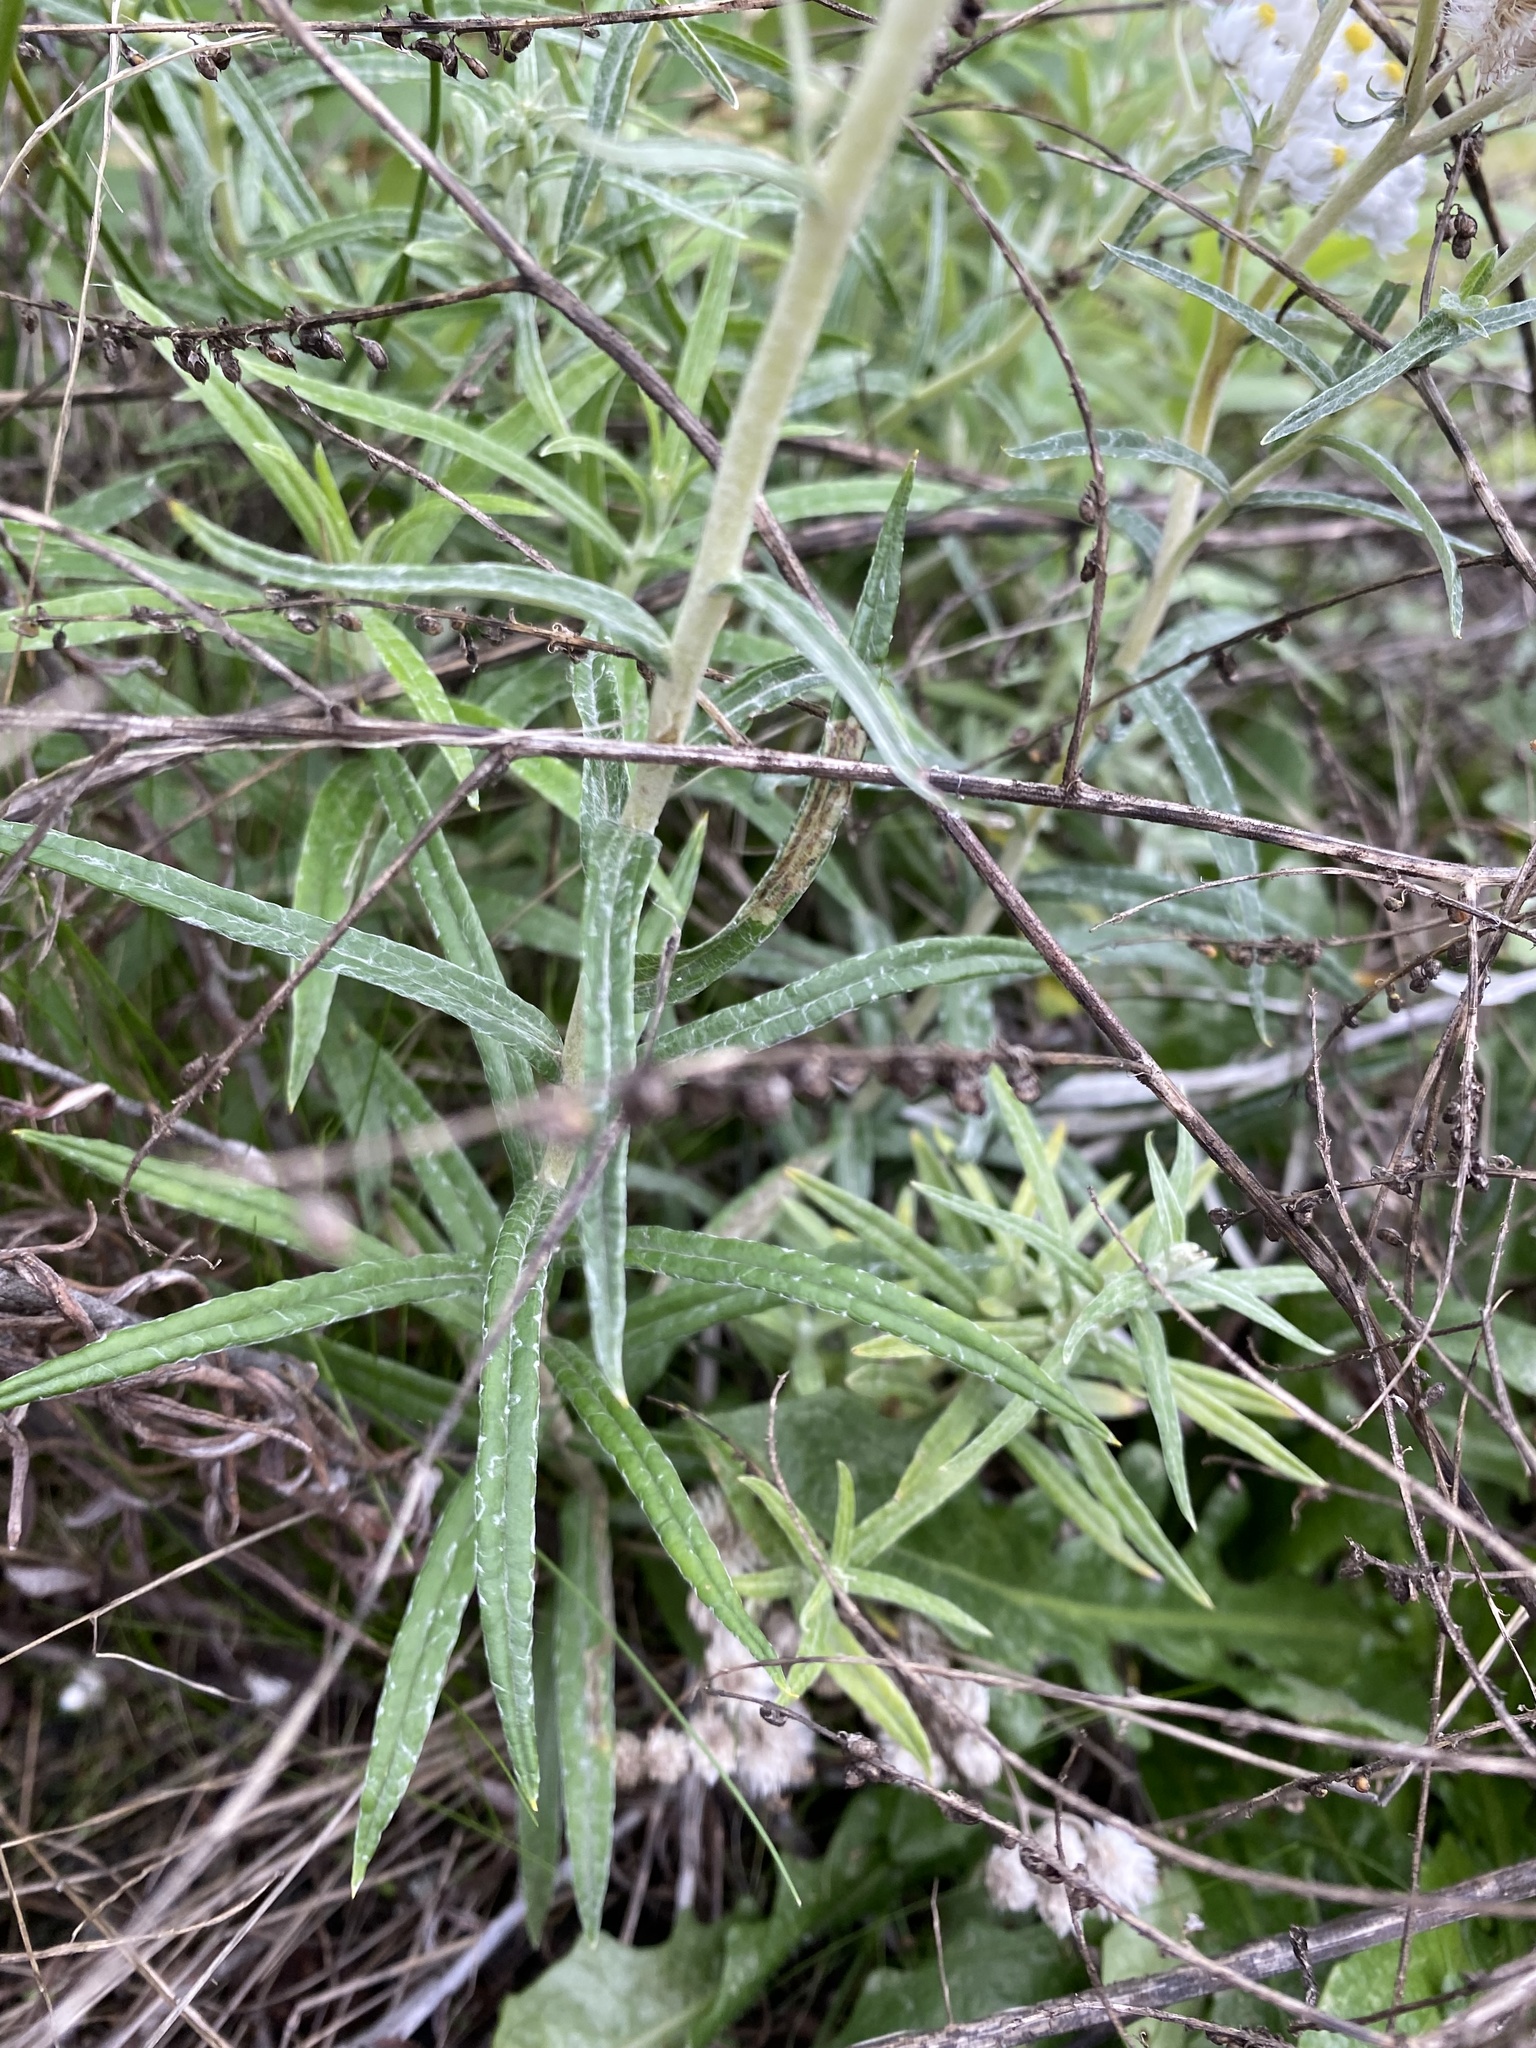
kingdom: Plantae
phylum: Tracheophyta
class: Magnoliopsida
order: Asterales
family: Asteraceae
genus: Anaphalis
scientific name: Anaphalis margaritacea
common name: Pearly everlasting
